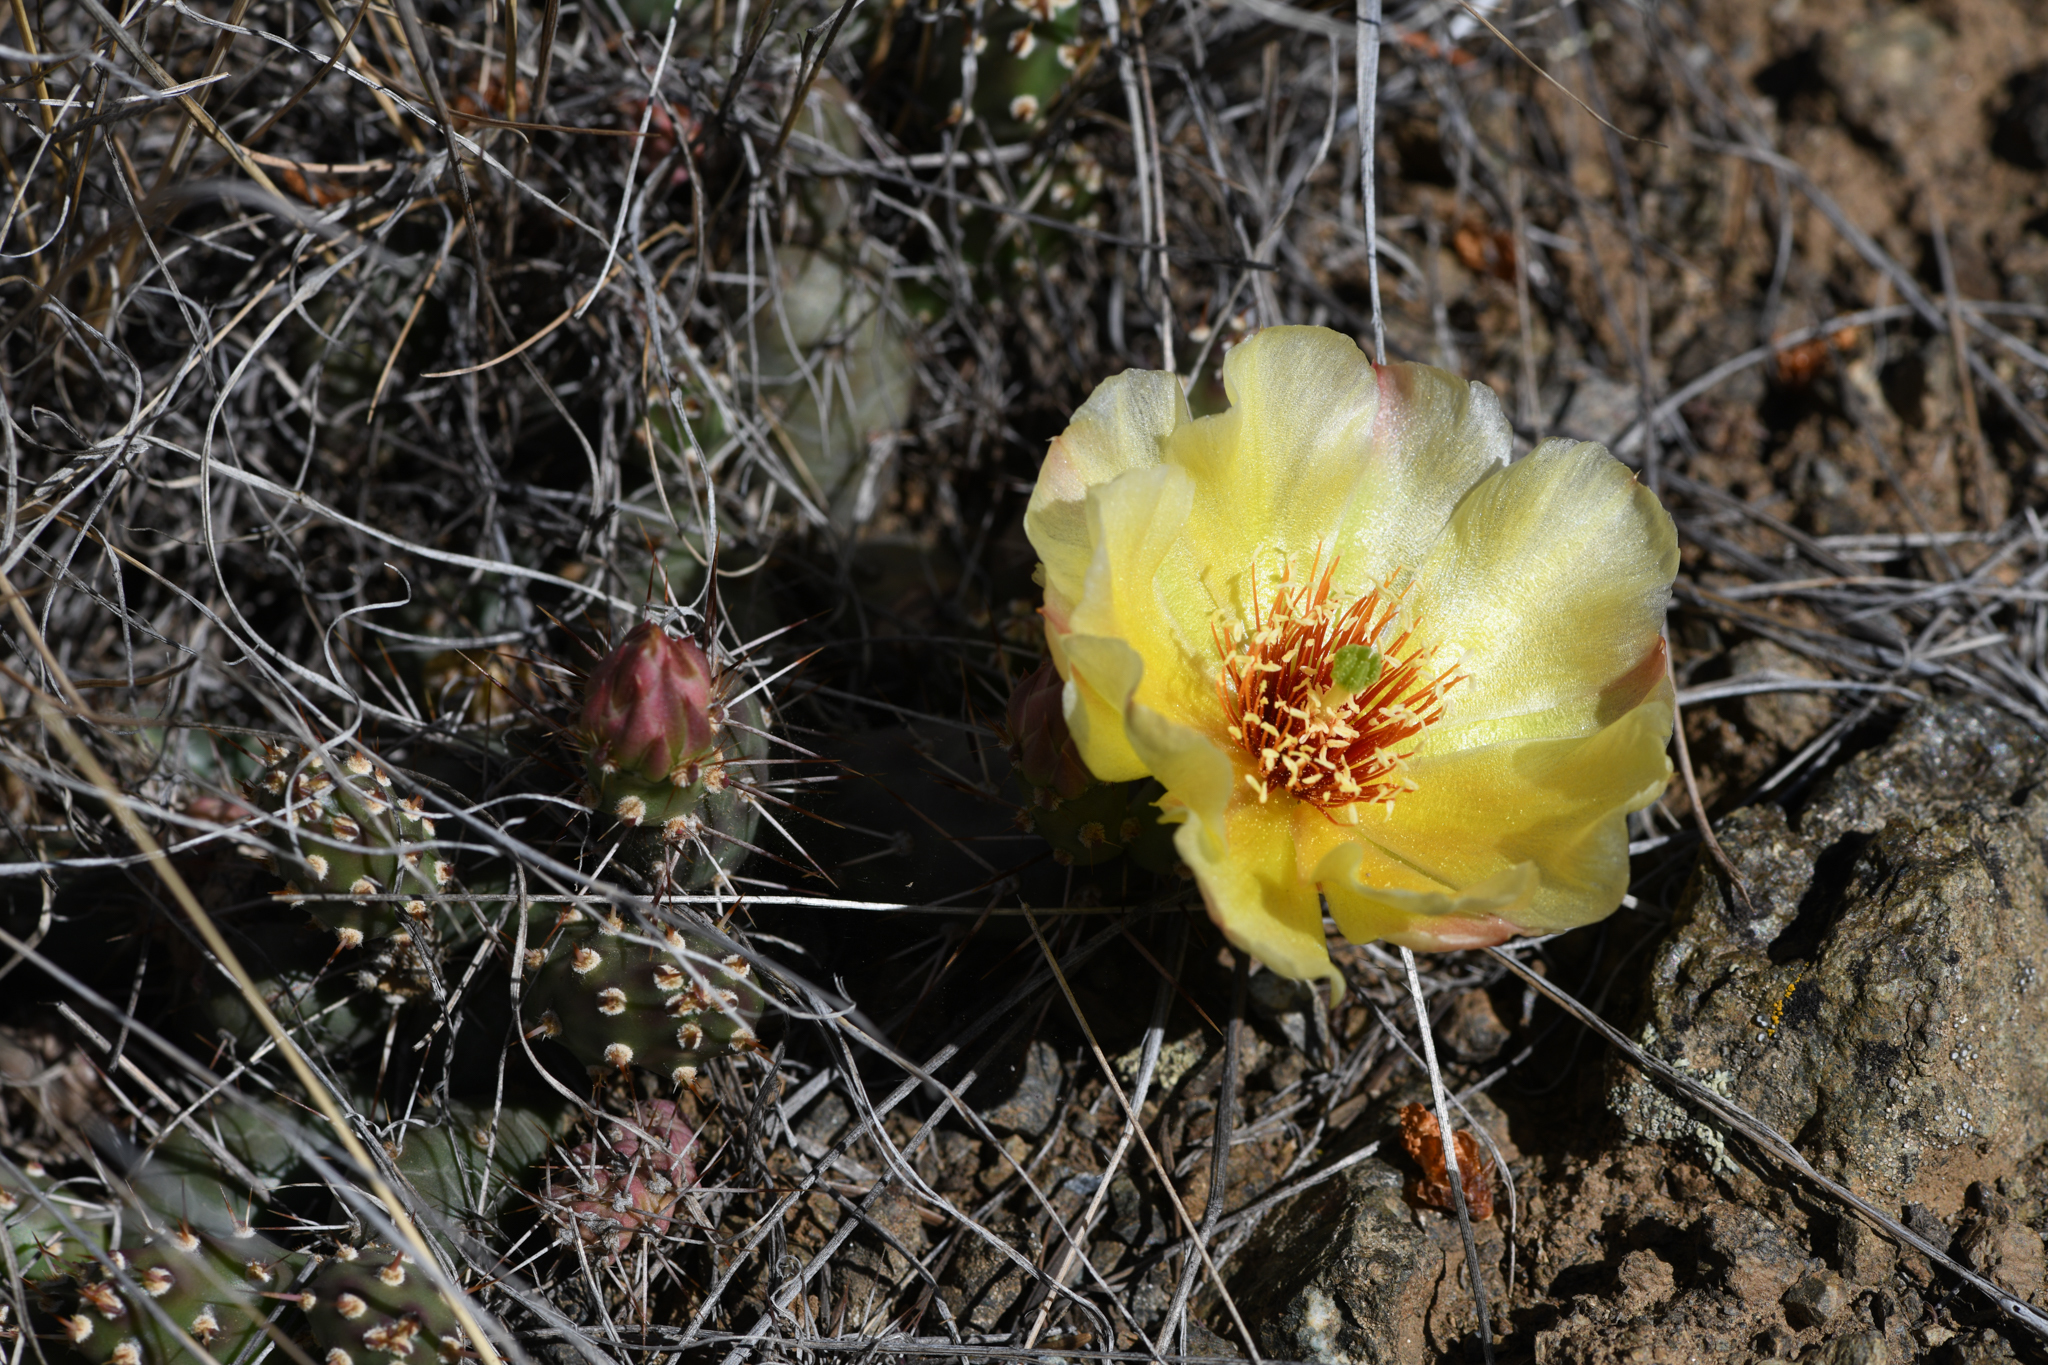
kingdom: Plantae
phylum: Tracheophyta
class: Magnoliopsida
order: Caryophyllales
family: Cactaceae
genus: Opuntia
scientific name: Opuntia fragilis
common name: Brittle cactus
